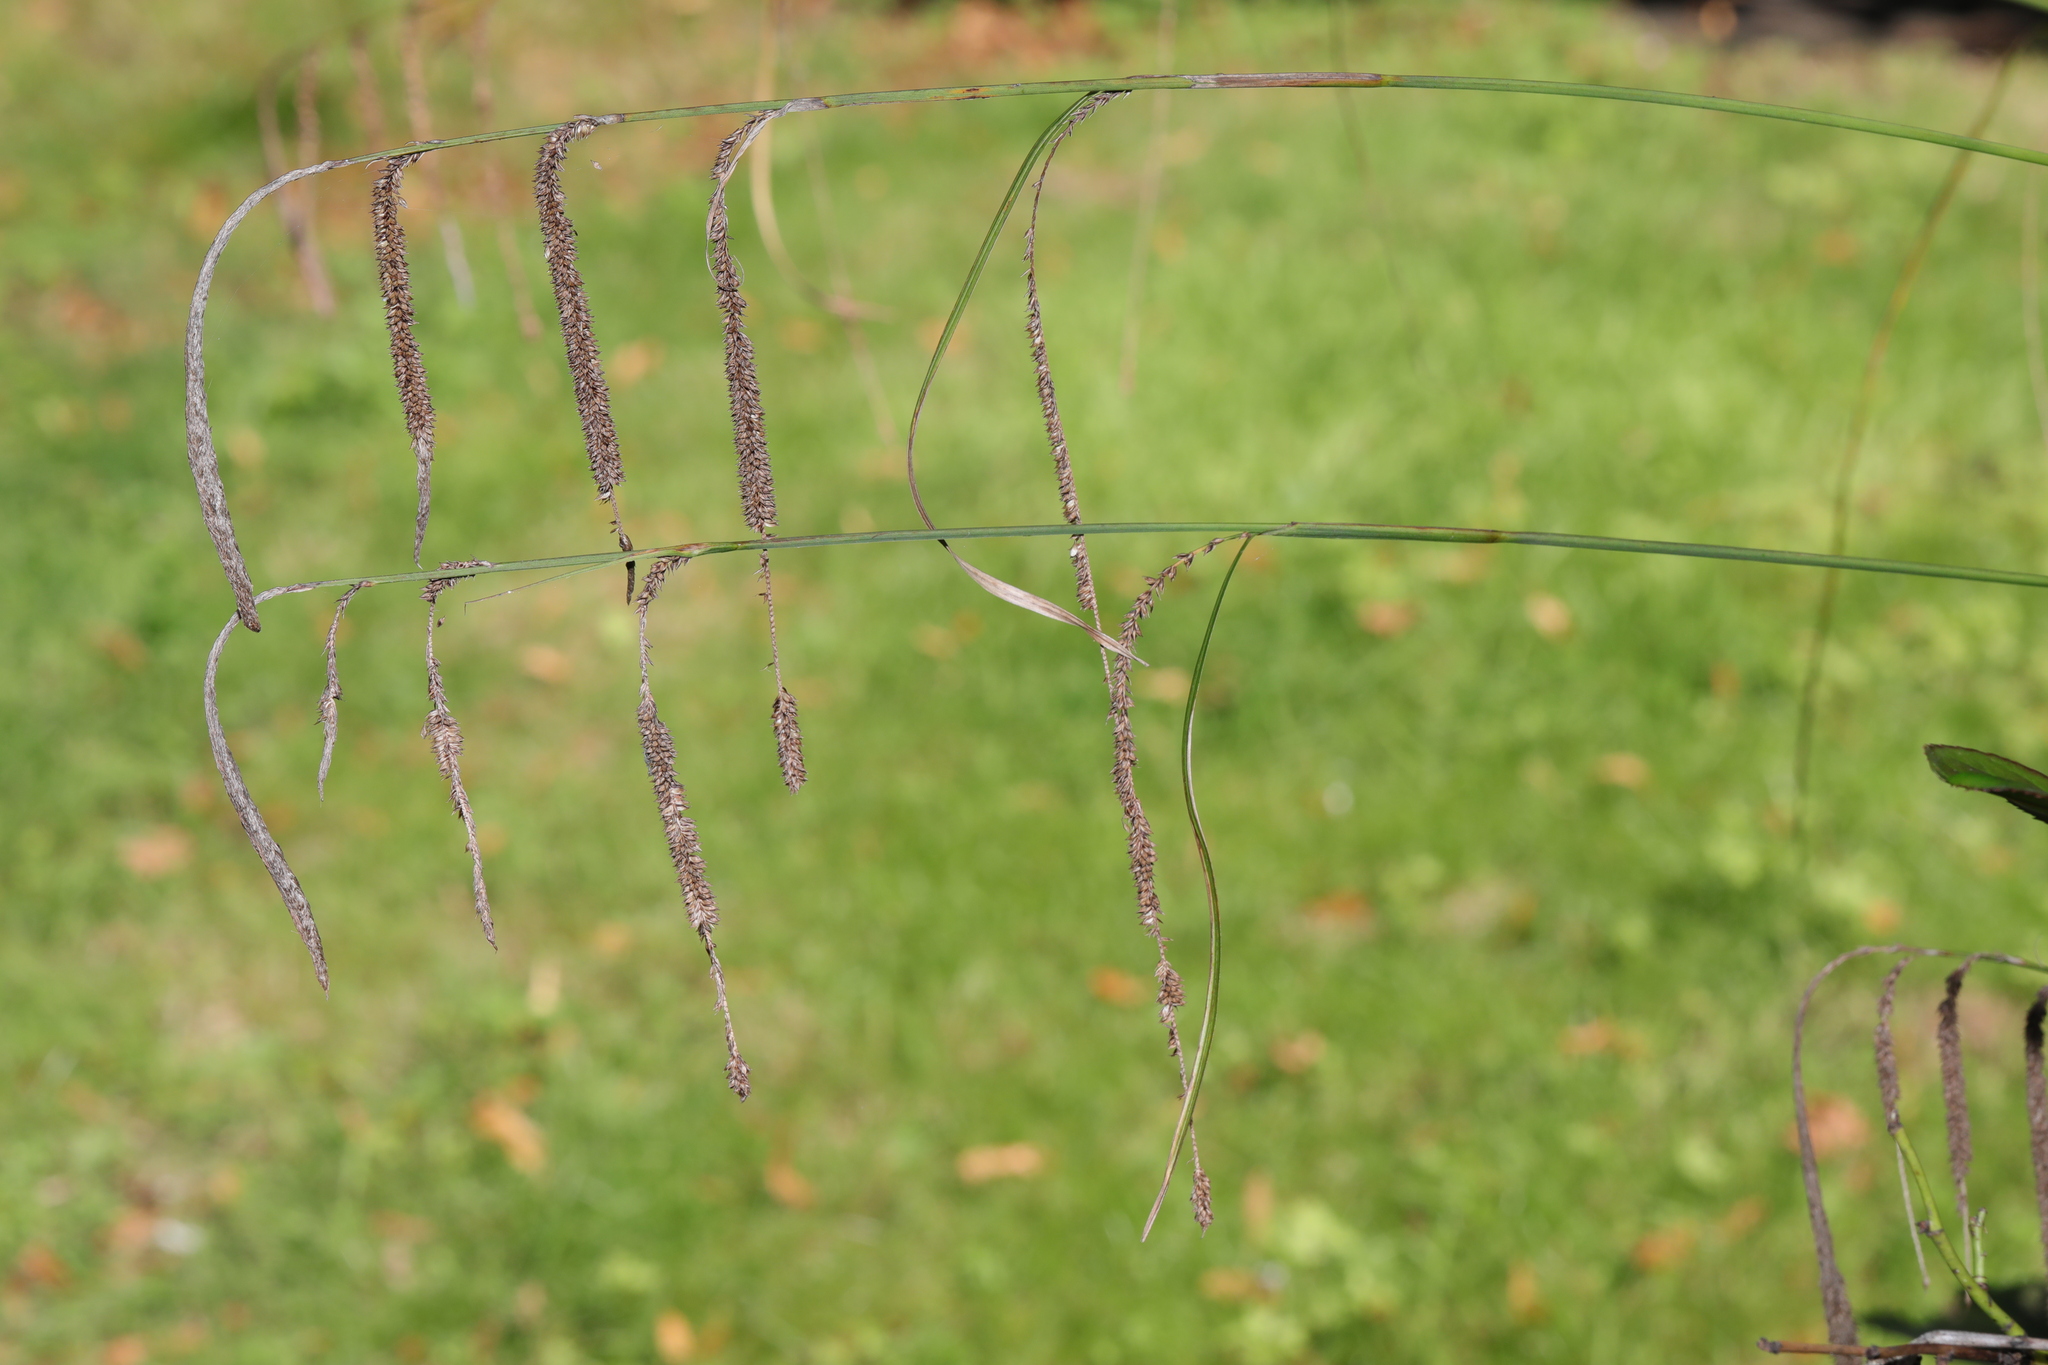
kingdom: Plantae
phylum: Tracheophyta
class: Liliopsida
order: Poales
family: Cyperaceae
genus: Carex
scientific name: Carex pendula
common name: Pendulous sedge
